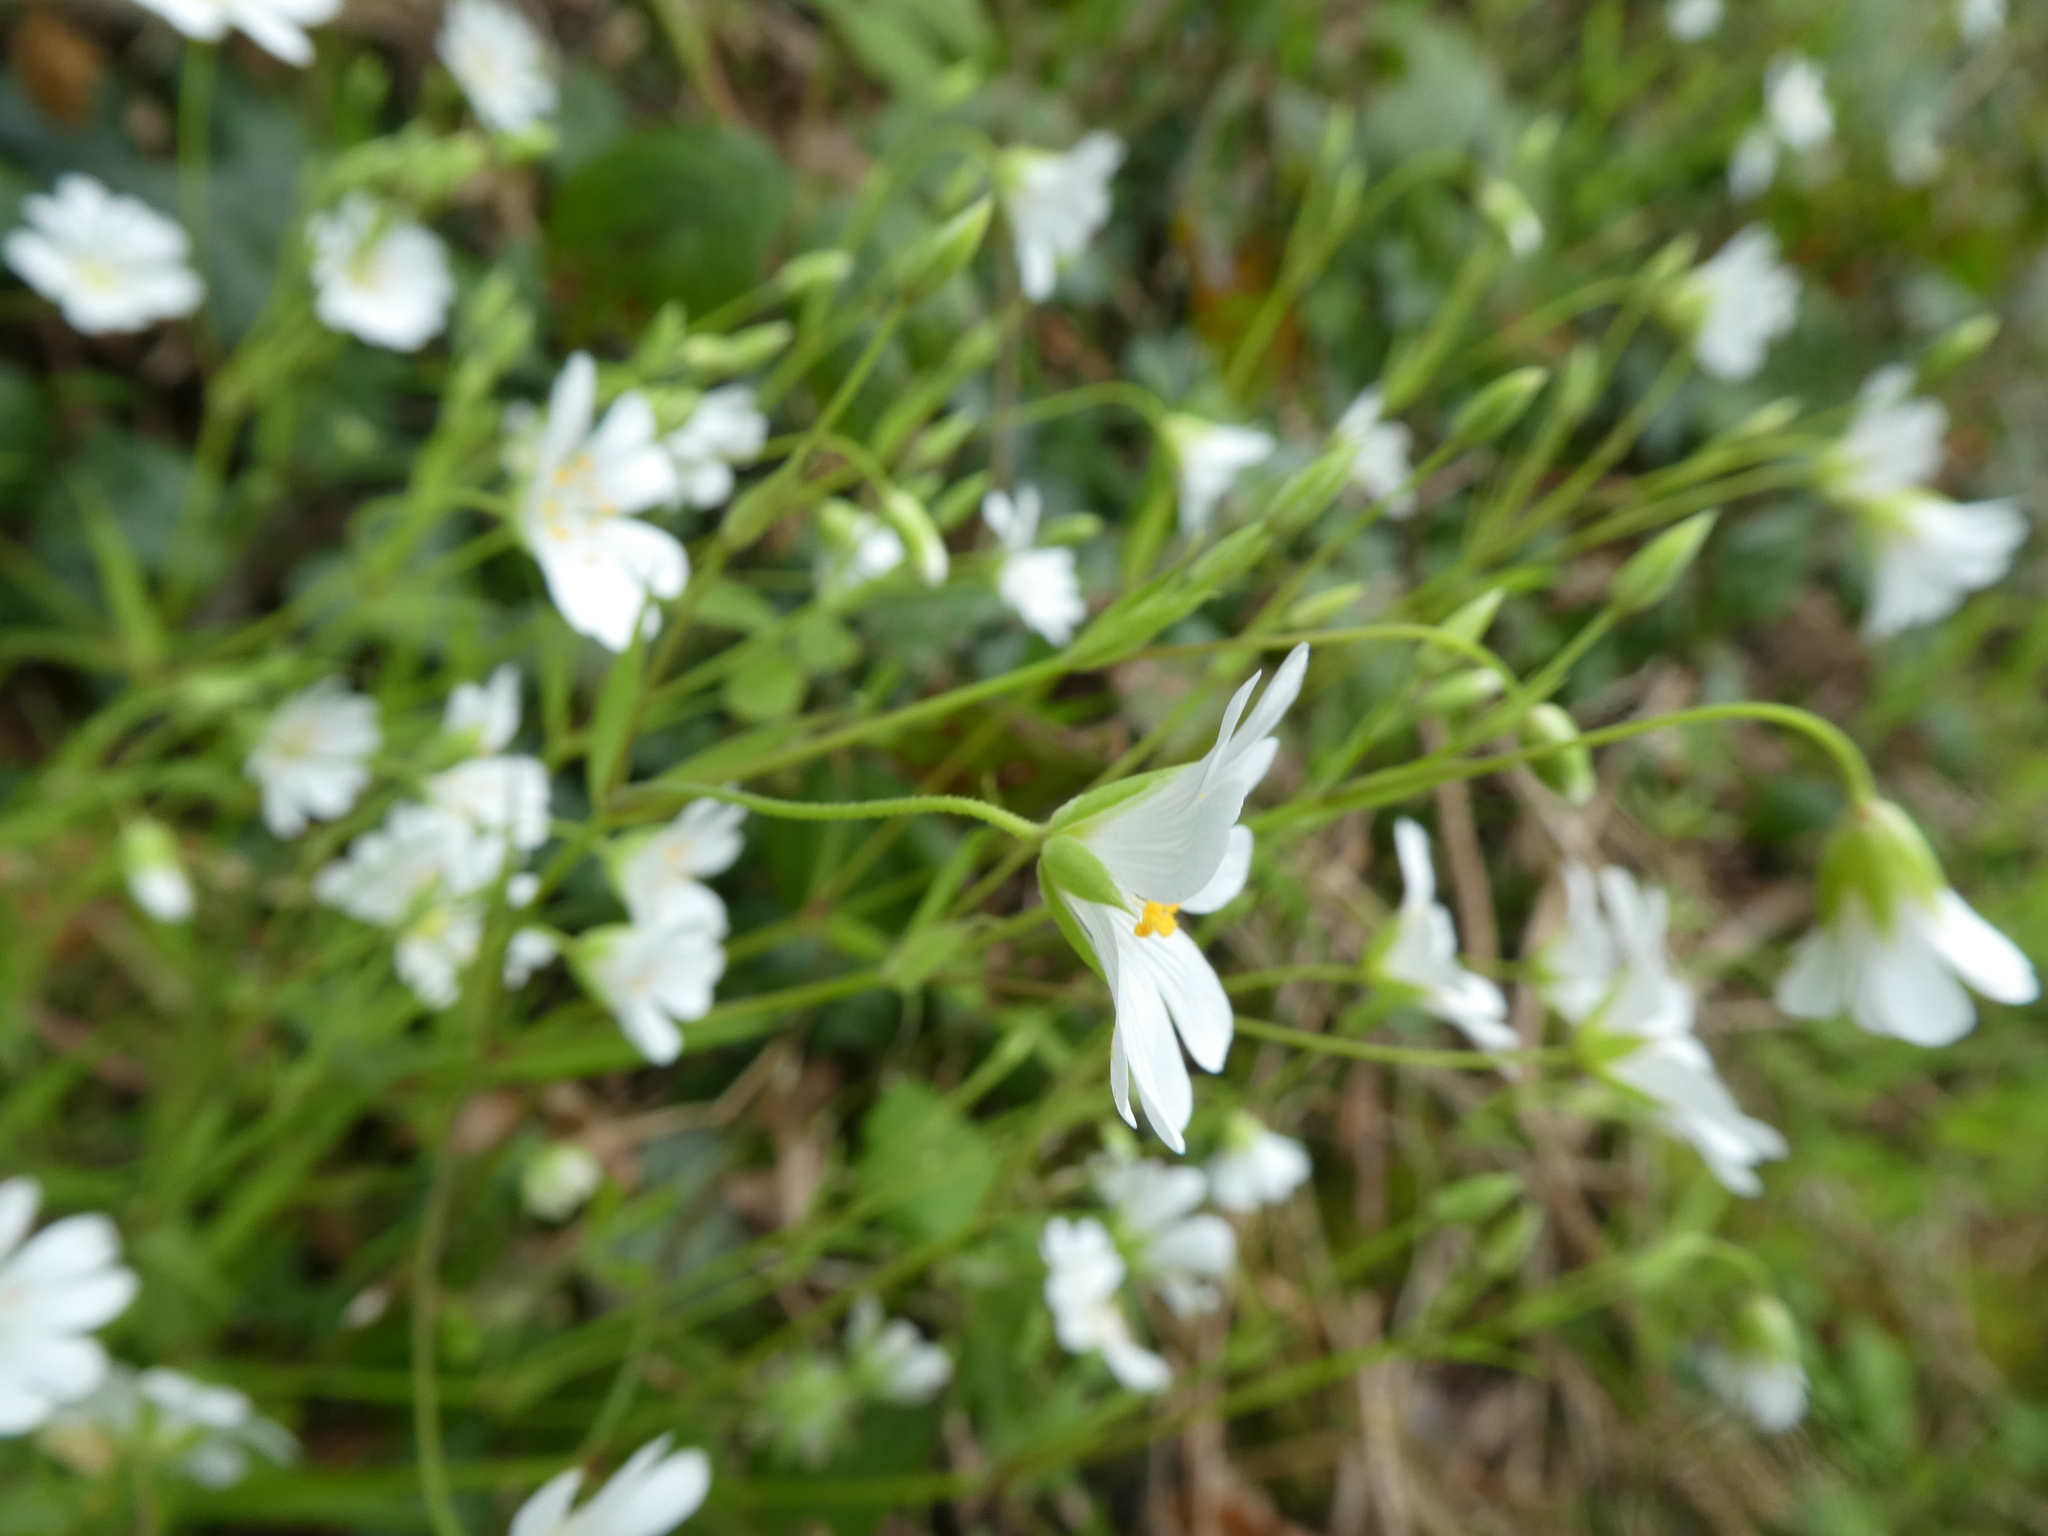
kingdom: Plantae
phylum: Tracheophyta
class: Magnoliopsida
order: Caryophyllales
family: Caryophyllaceae
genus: Rabelera
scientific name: Rabelera holostea
